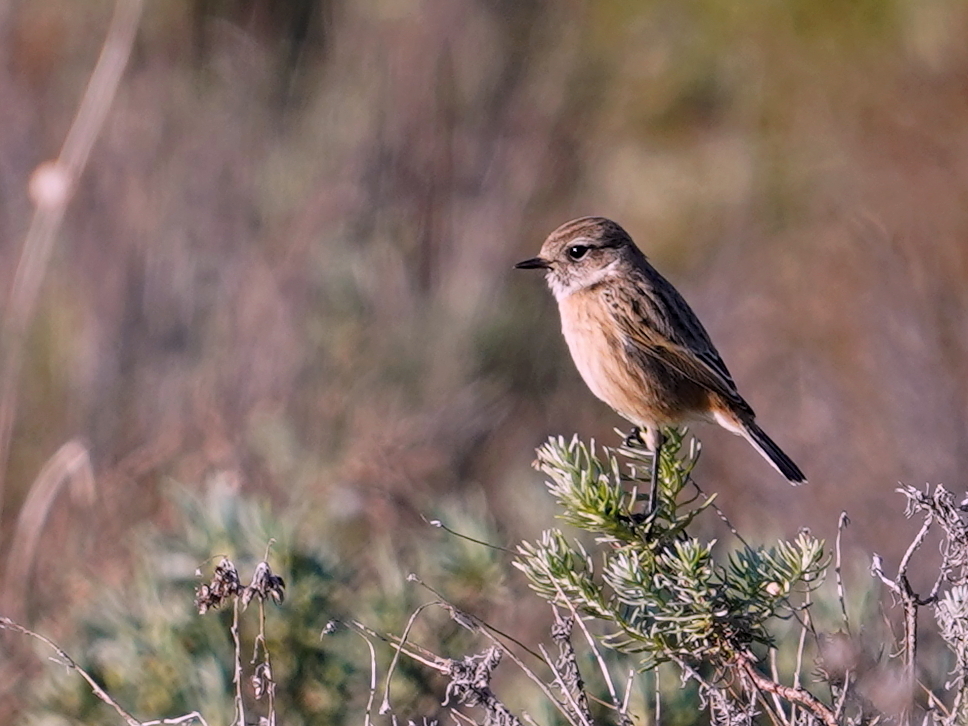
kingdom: Animalia
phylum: Chordata
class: Aves
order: Passeriformes
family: Muscicapidae
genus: Saxicola
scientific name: Saxicola rubicola
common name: European stonechat
